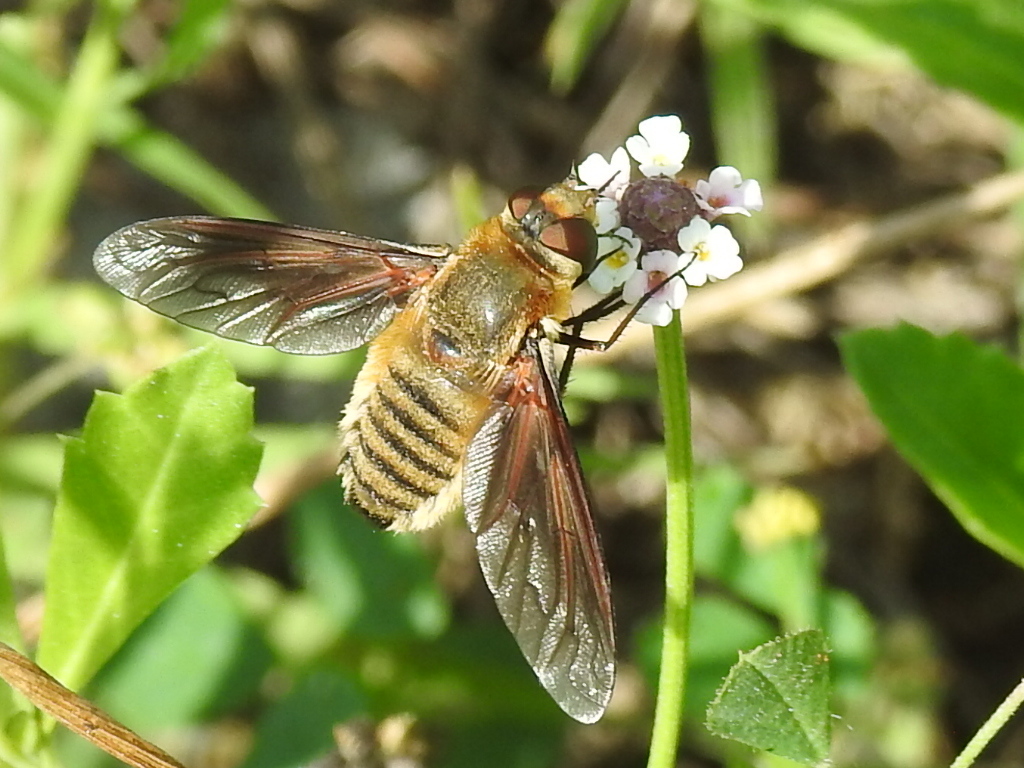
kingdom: Animalia
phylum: Arthropoda
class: Insecta
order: Diptera
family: Bombyliidae
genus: Poecilanthrax
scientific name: Poecilanthrax lucifer
